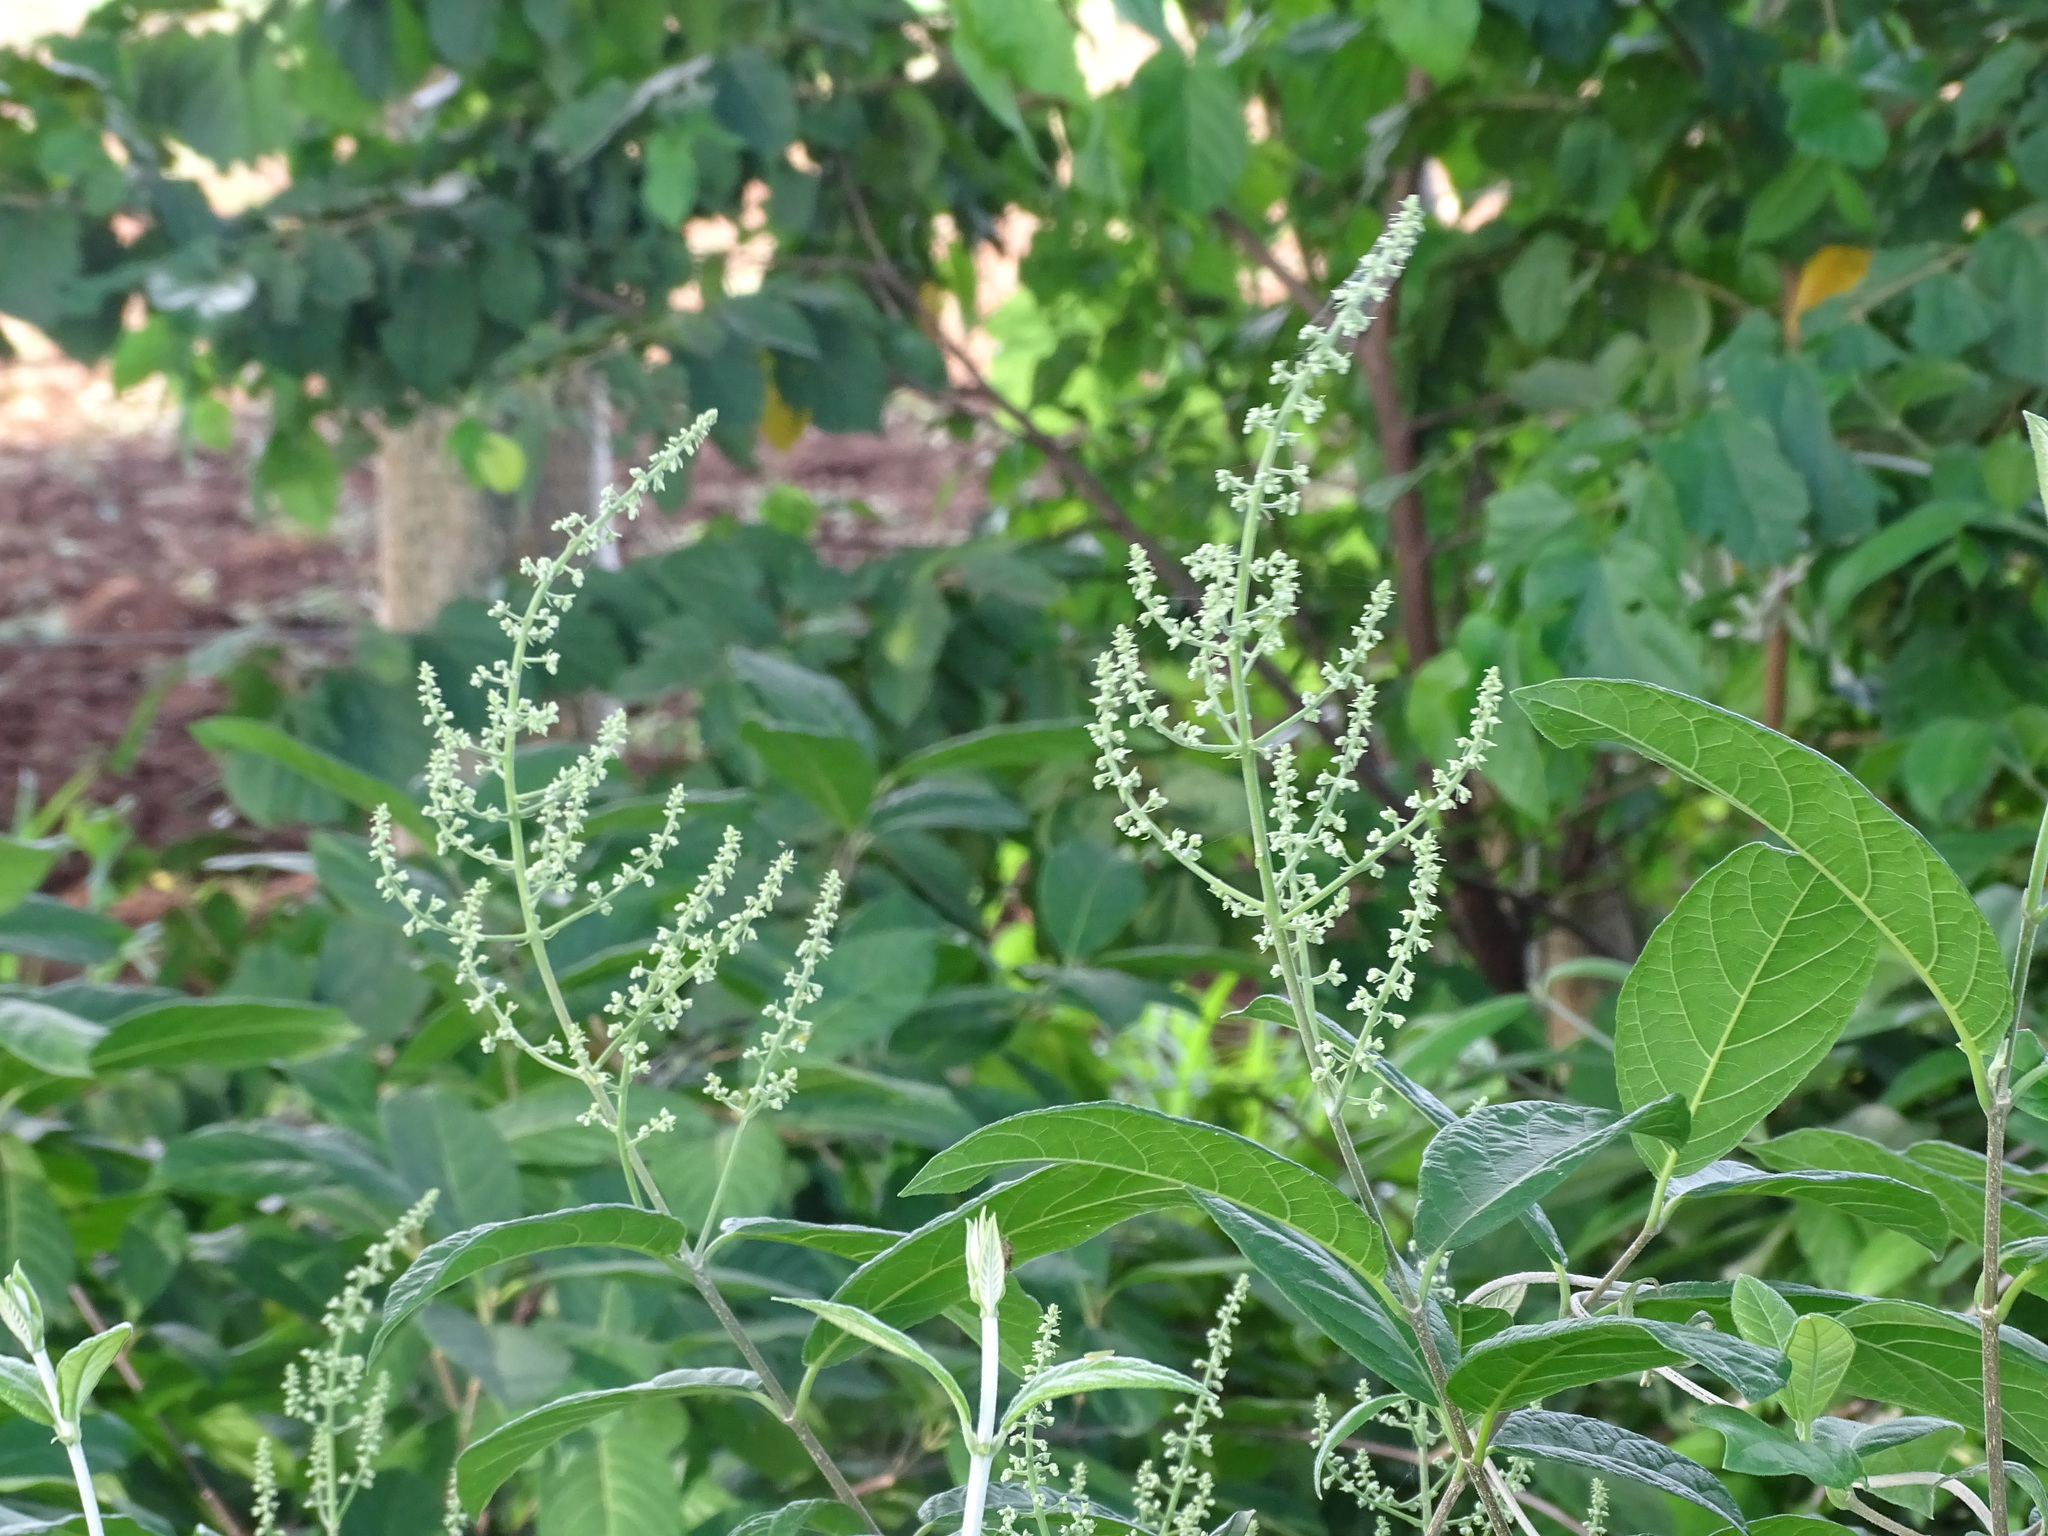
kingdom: Plantae
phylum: Tracheophyta
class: Magnoliopsida
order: Caryophyllales
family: Amaranthaceae
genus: Celosia
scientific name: Celosia monosperma
